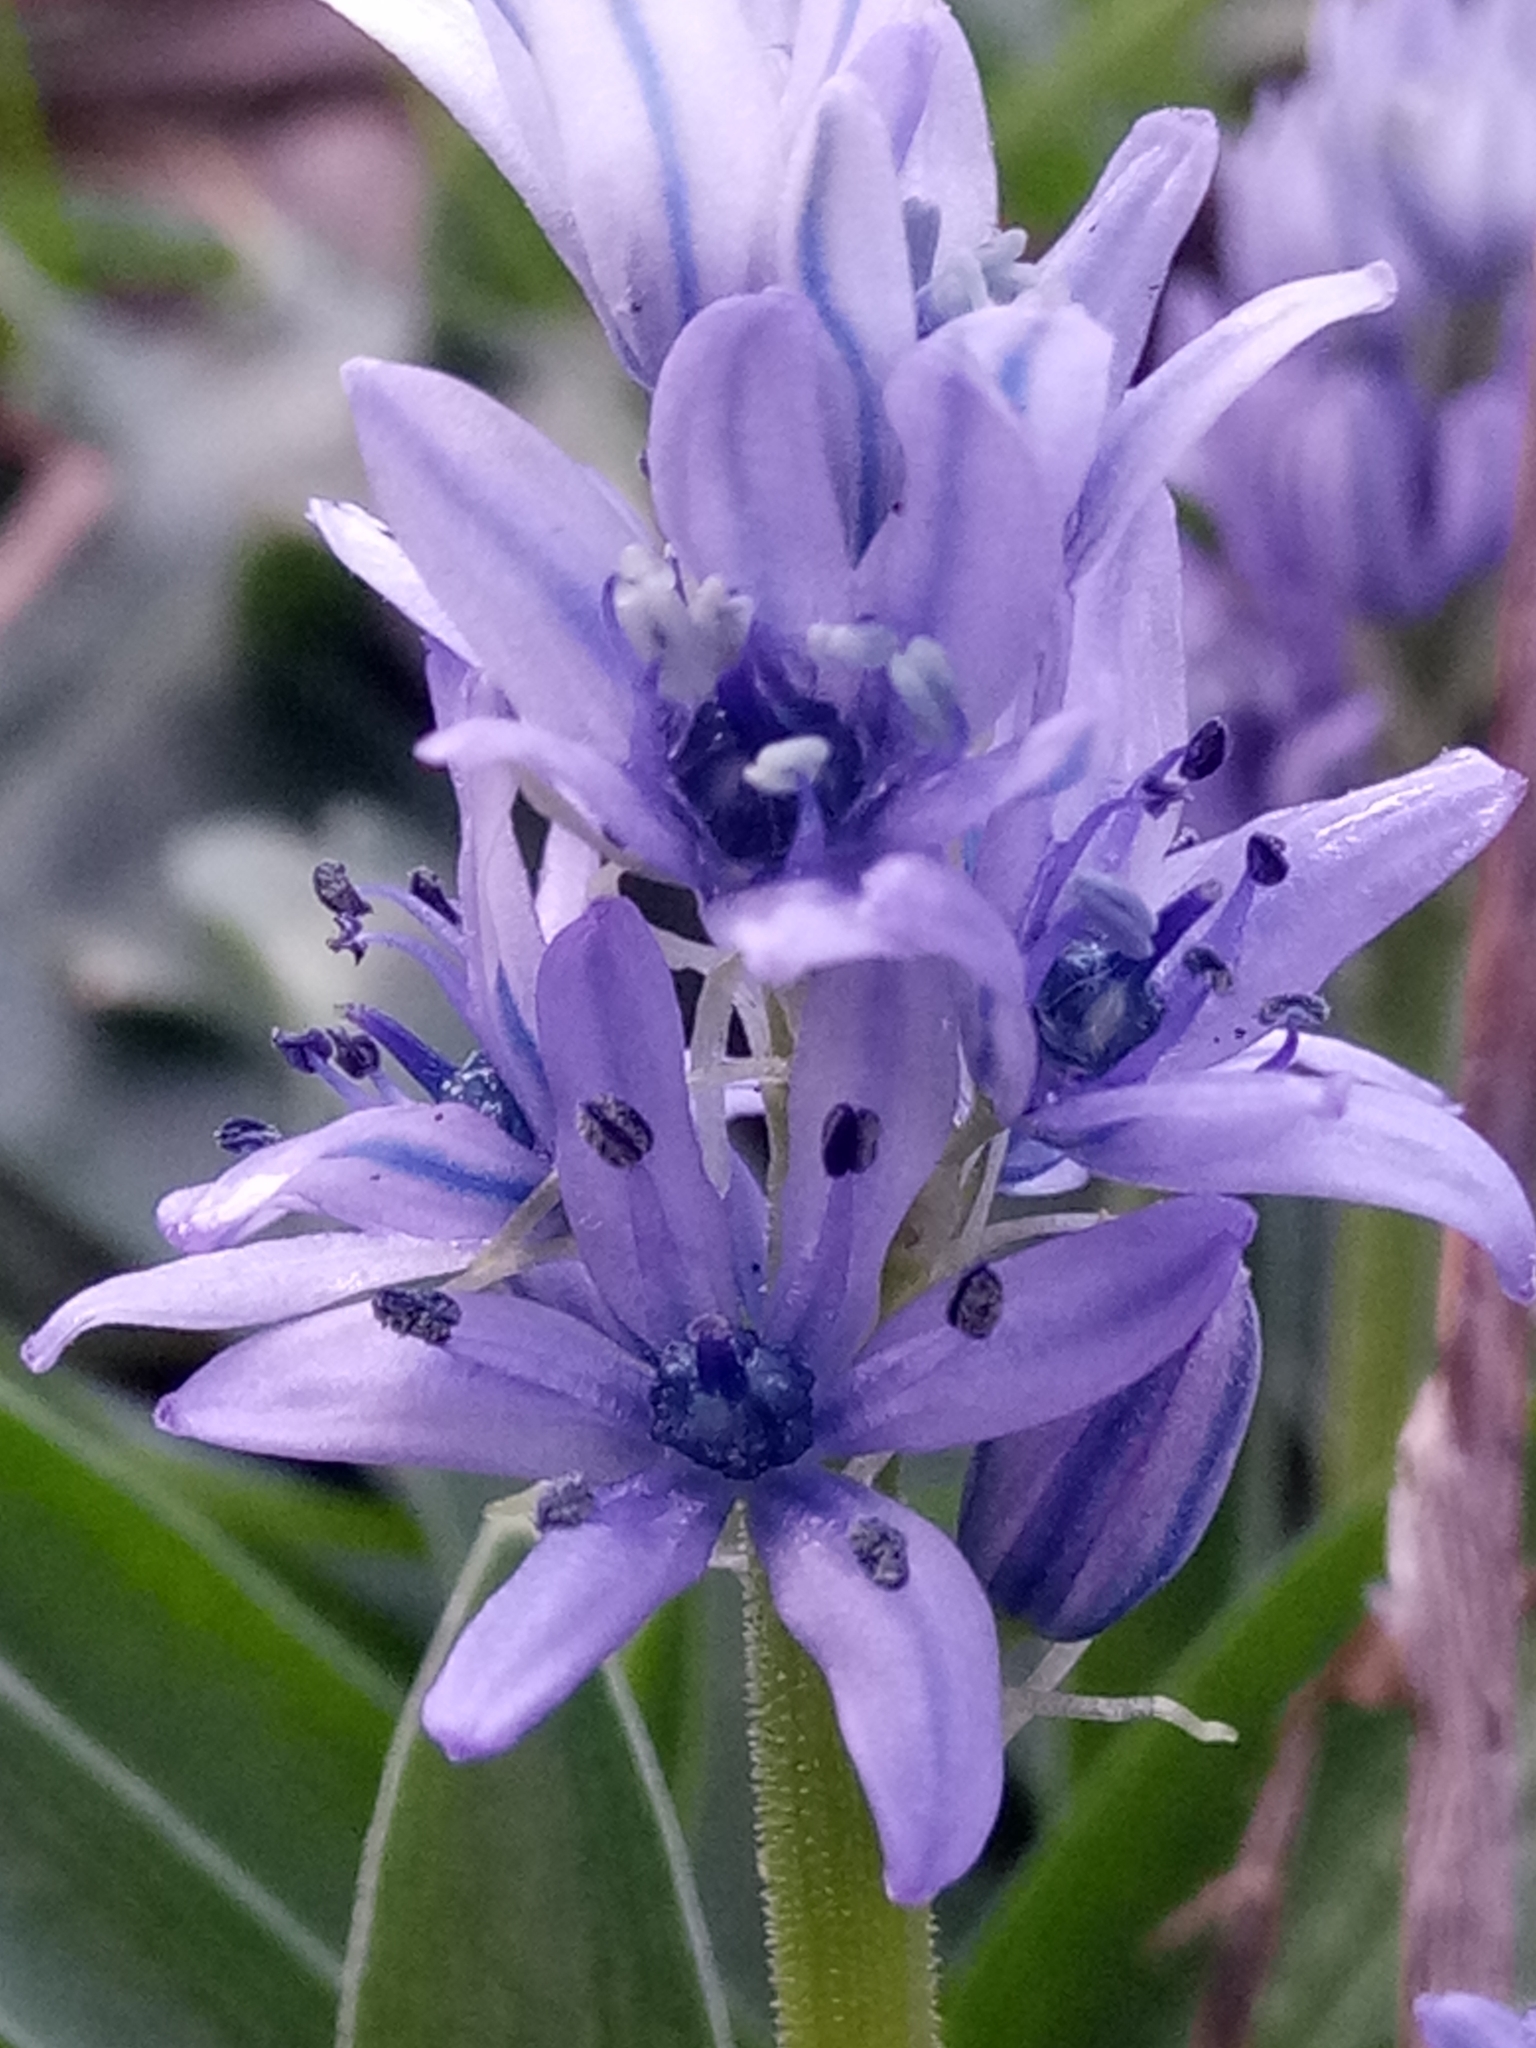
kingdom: Plantae
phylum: Tracheophyta
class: Liliopsida
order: Asparagales
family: Asparagaceae
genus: Hyacinthoides
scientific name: Hyacinthoides lingulata
